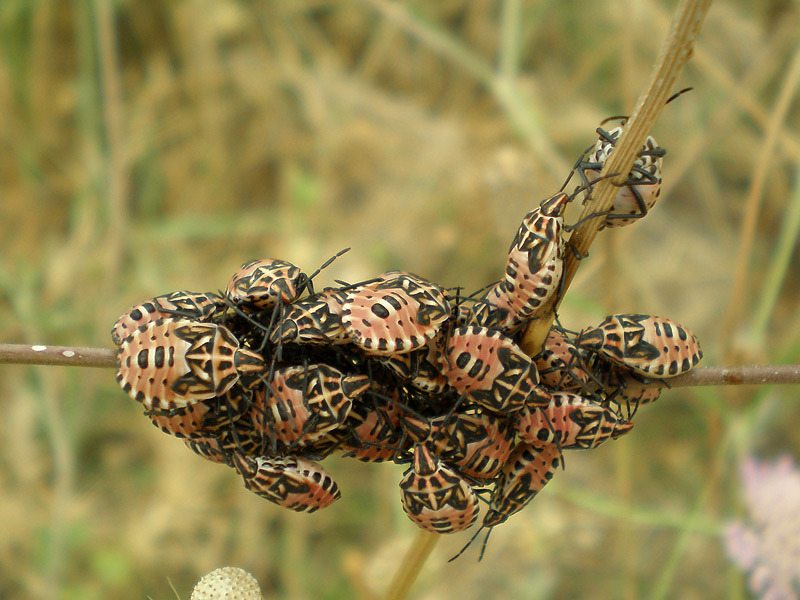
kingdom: Animalia
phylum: Arthropoda
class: Insecta
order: Hemiptera
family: Miridae
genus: Orthops
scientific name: Orthops kalmii
